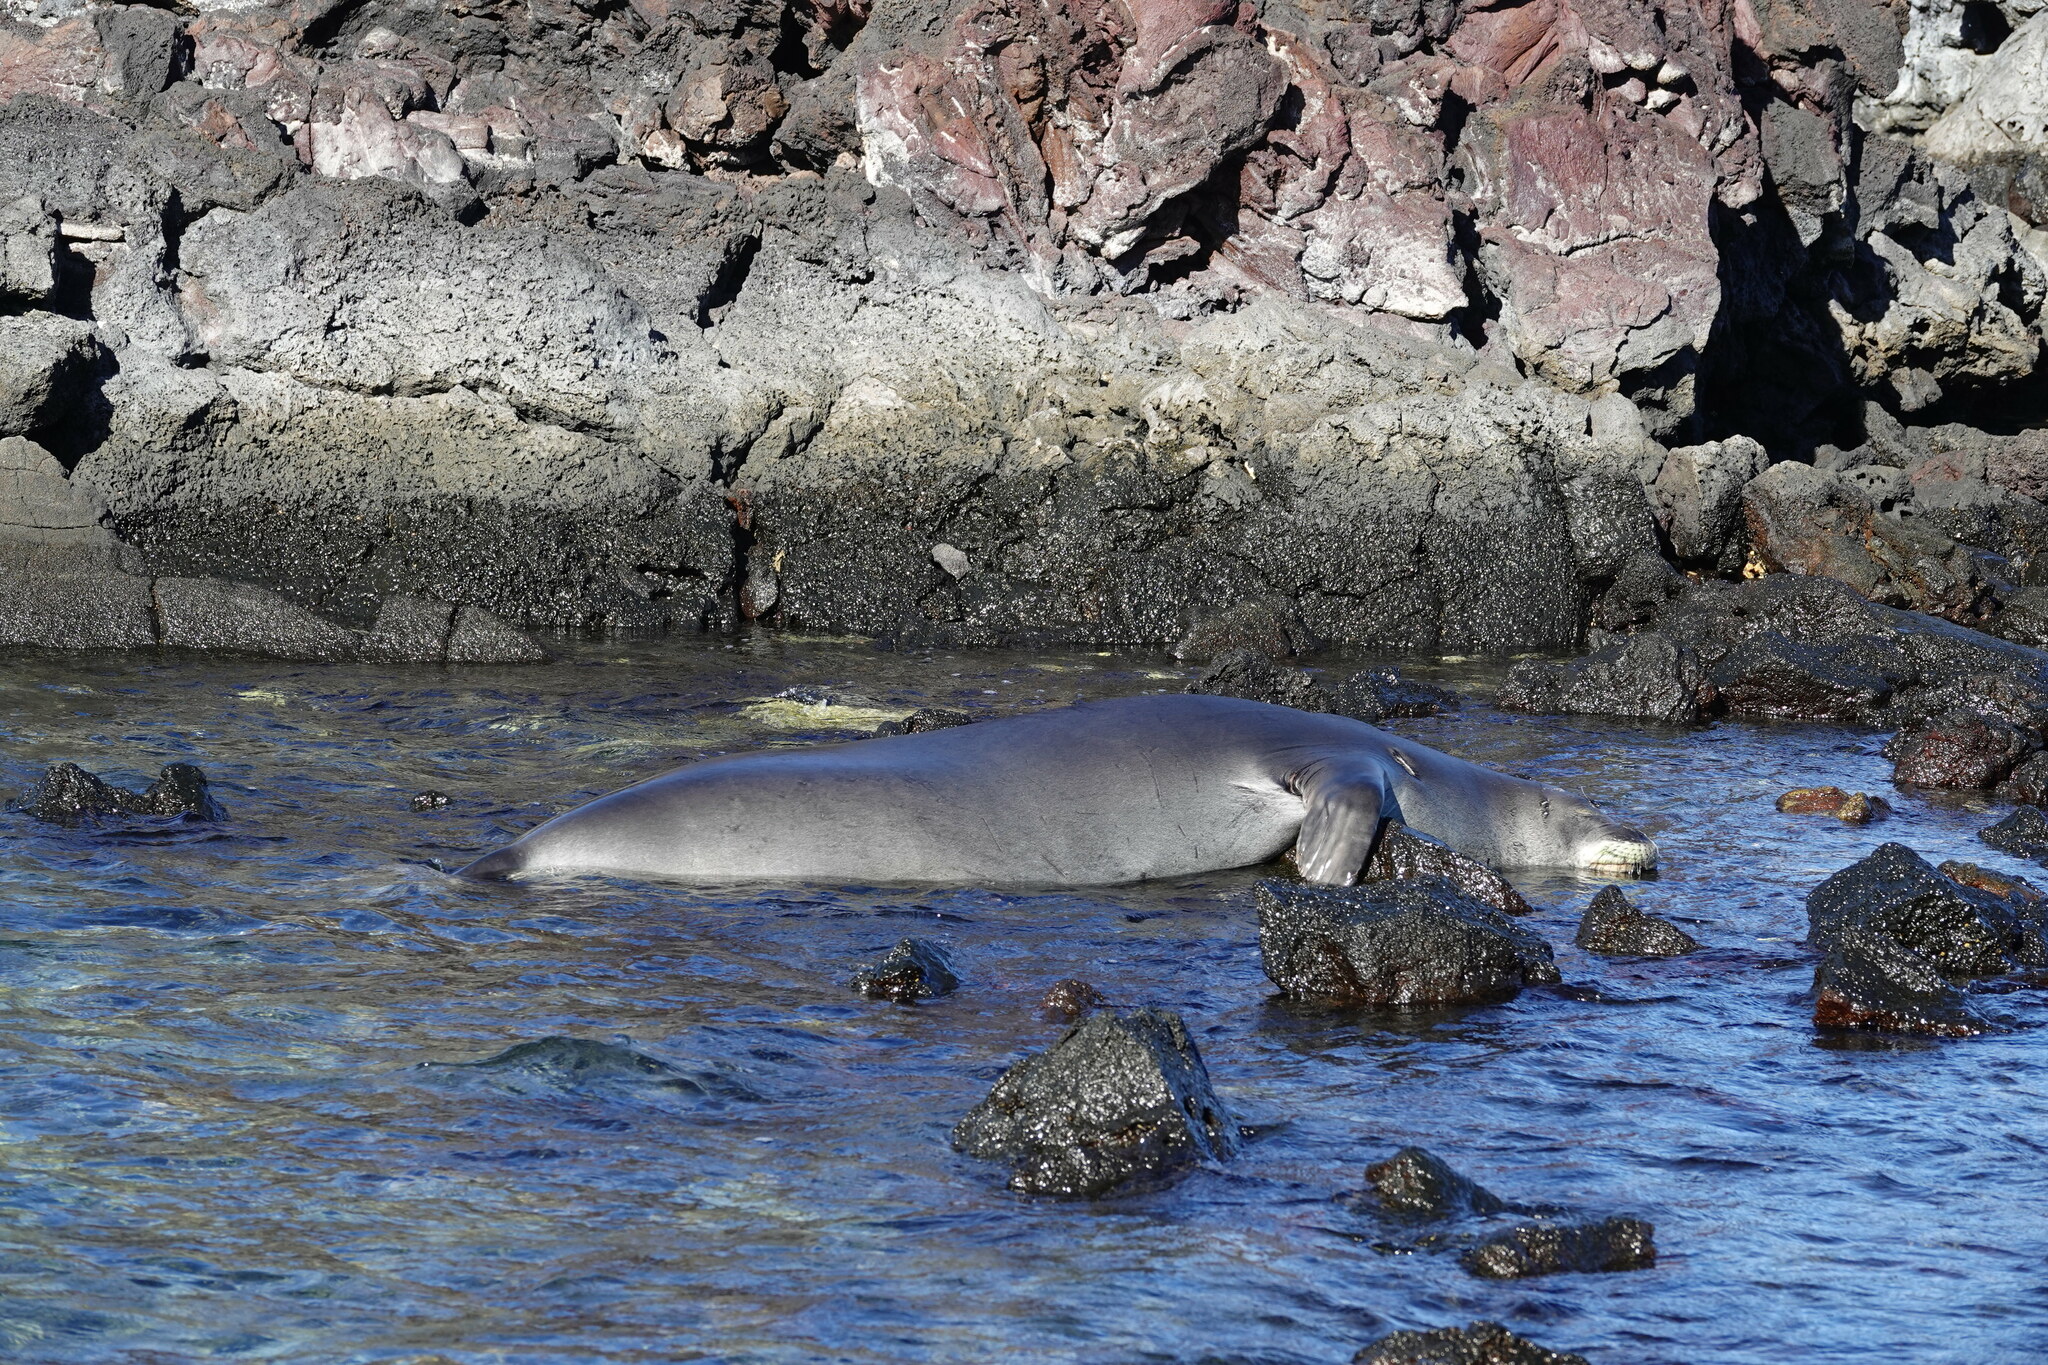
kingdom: Animalia
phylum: Chordata
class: Mammalia
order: Carnivora
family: Phocidae
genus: Neomonachus
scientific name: Neomonachus schauinslandi
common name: Hawaiian monk seal
